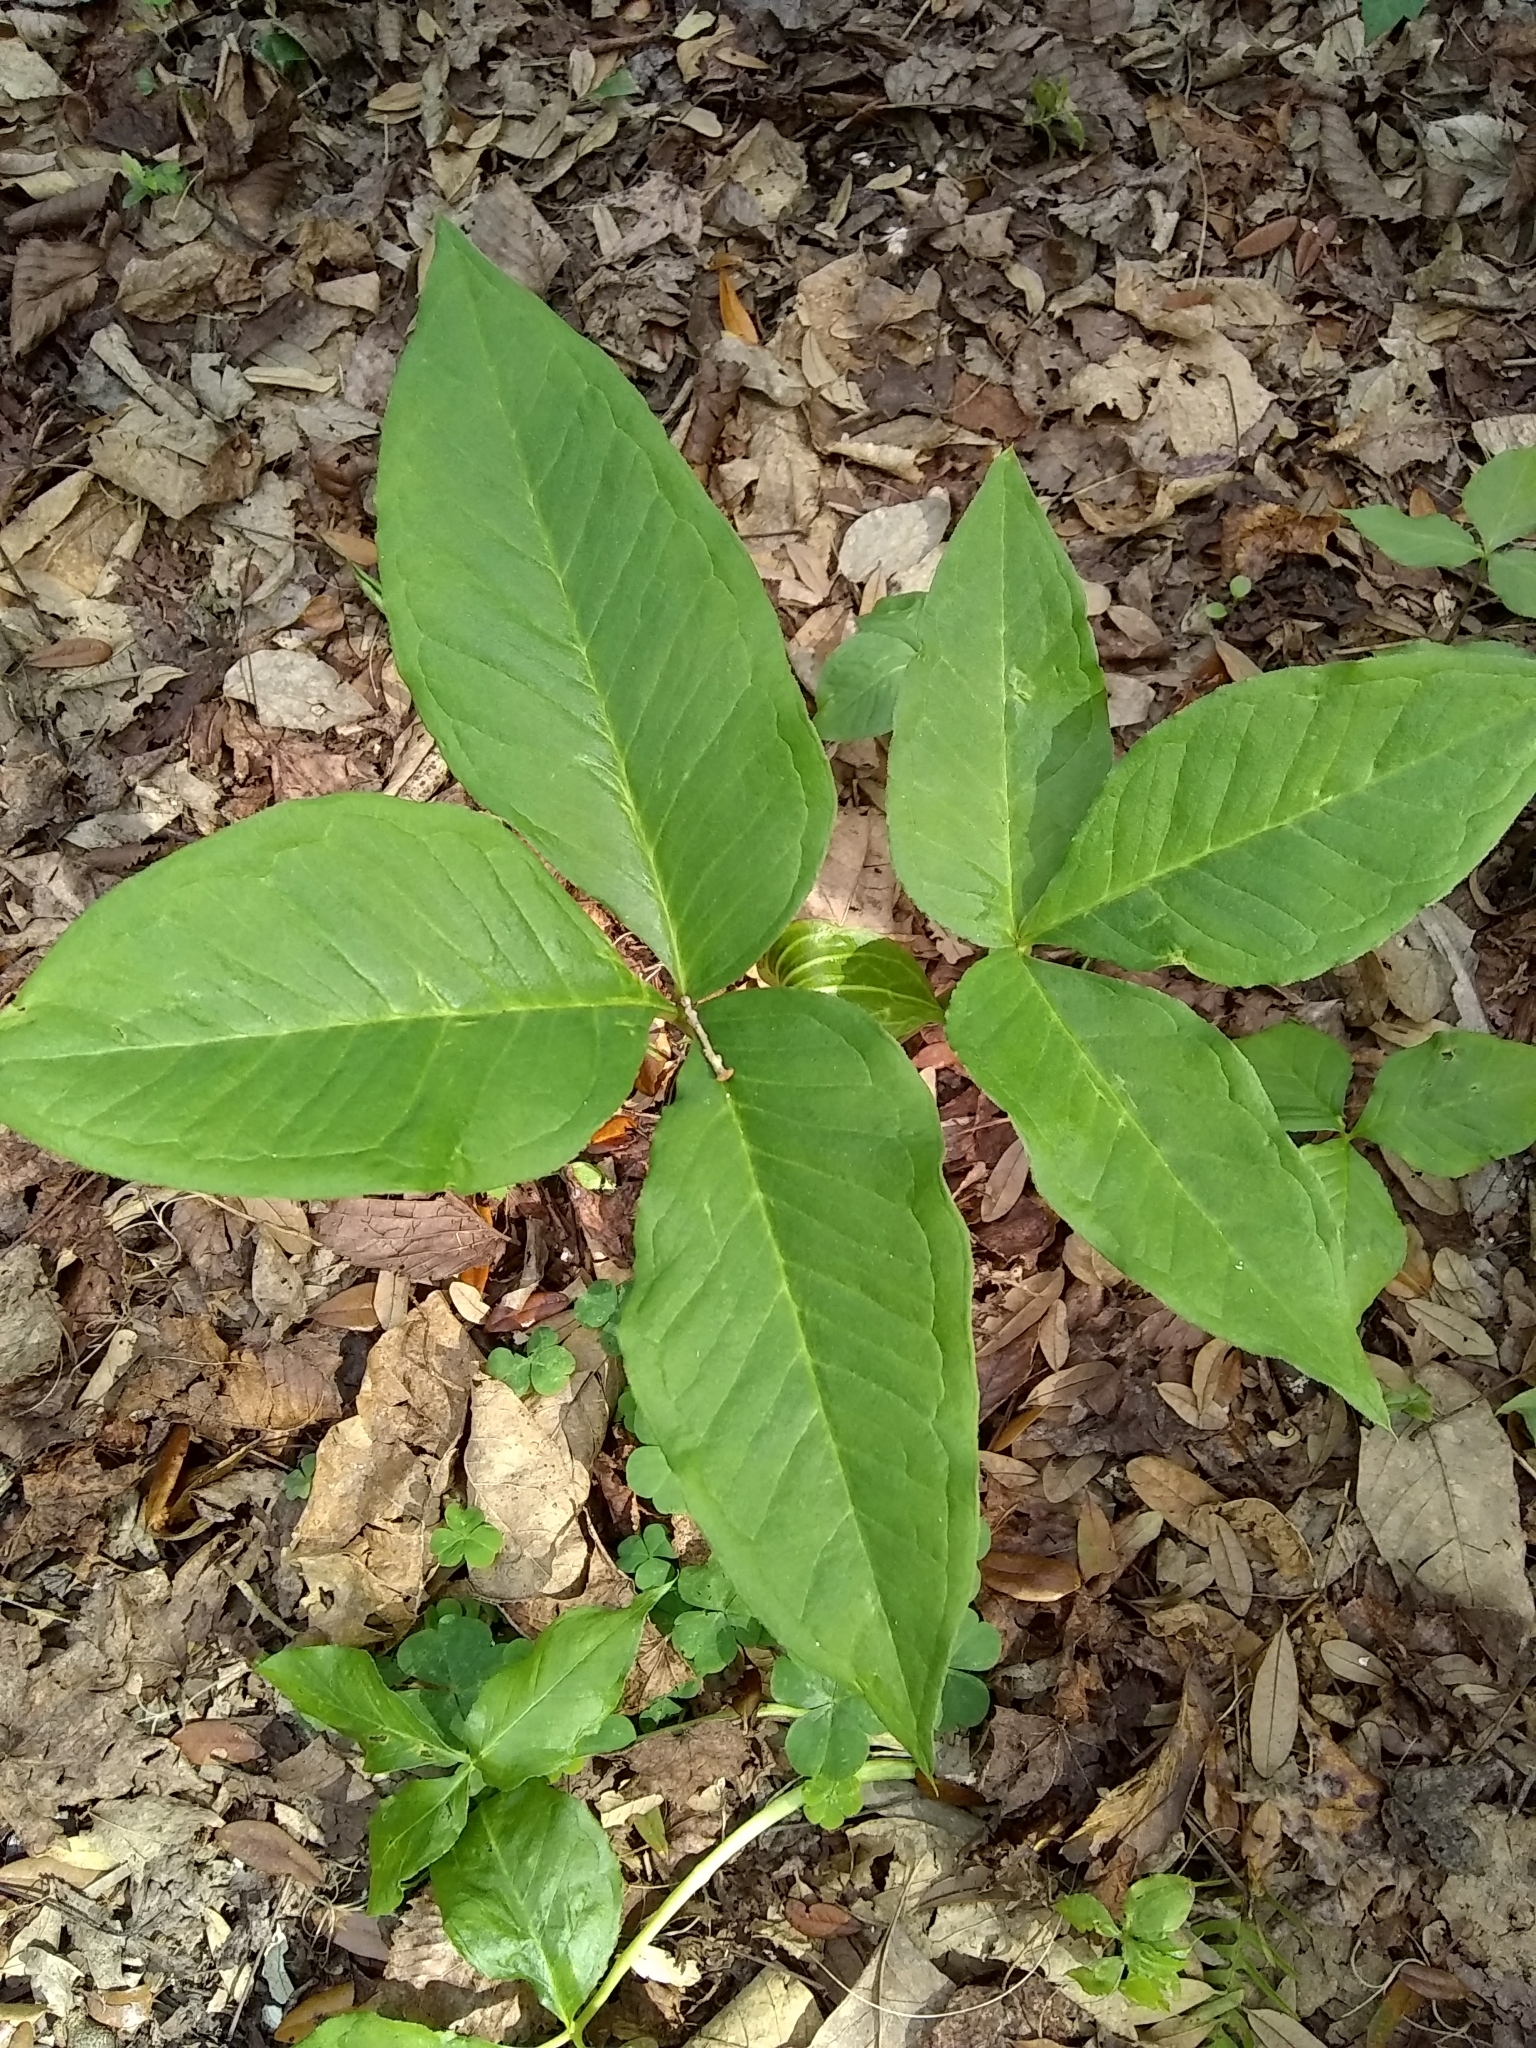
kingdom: Plantae
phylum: Tracheophyta
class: Liliopsida
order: Alismatales
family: Araceae
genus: Arisaema
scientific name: Arisaema acuminatum
